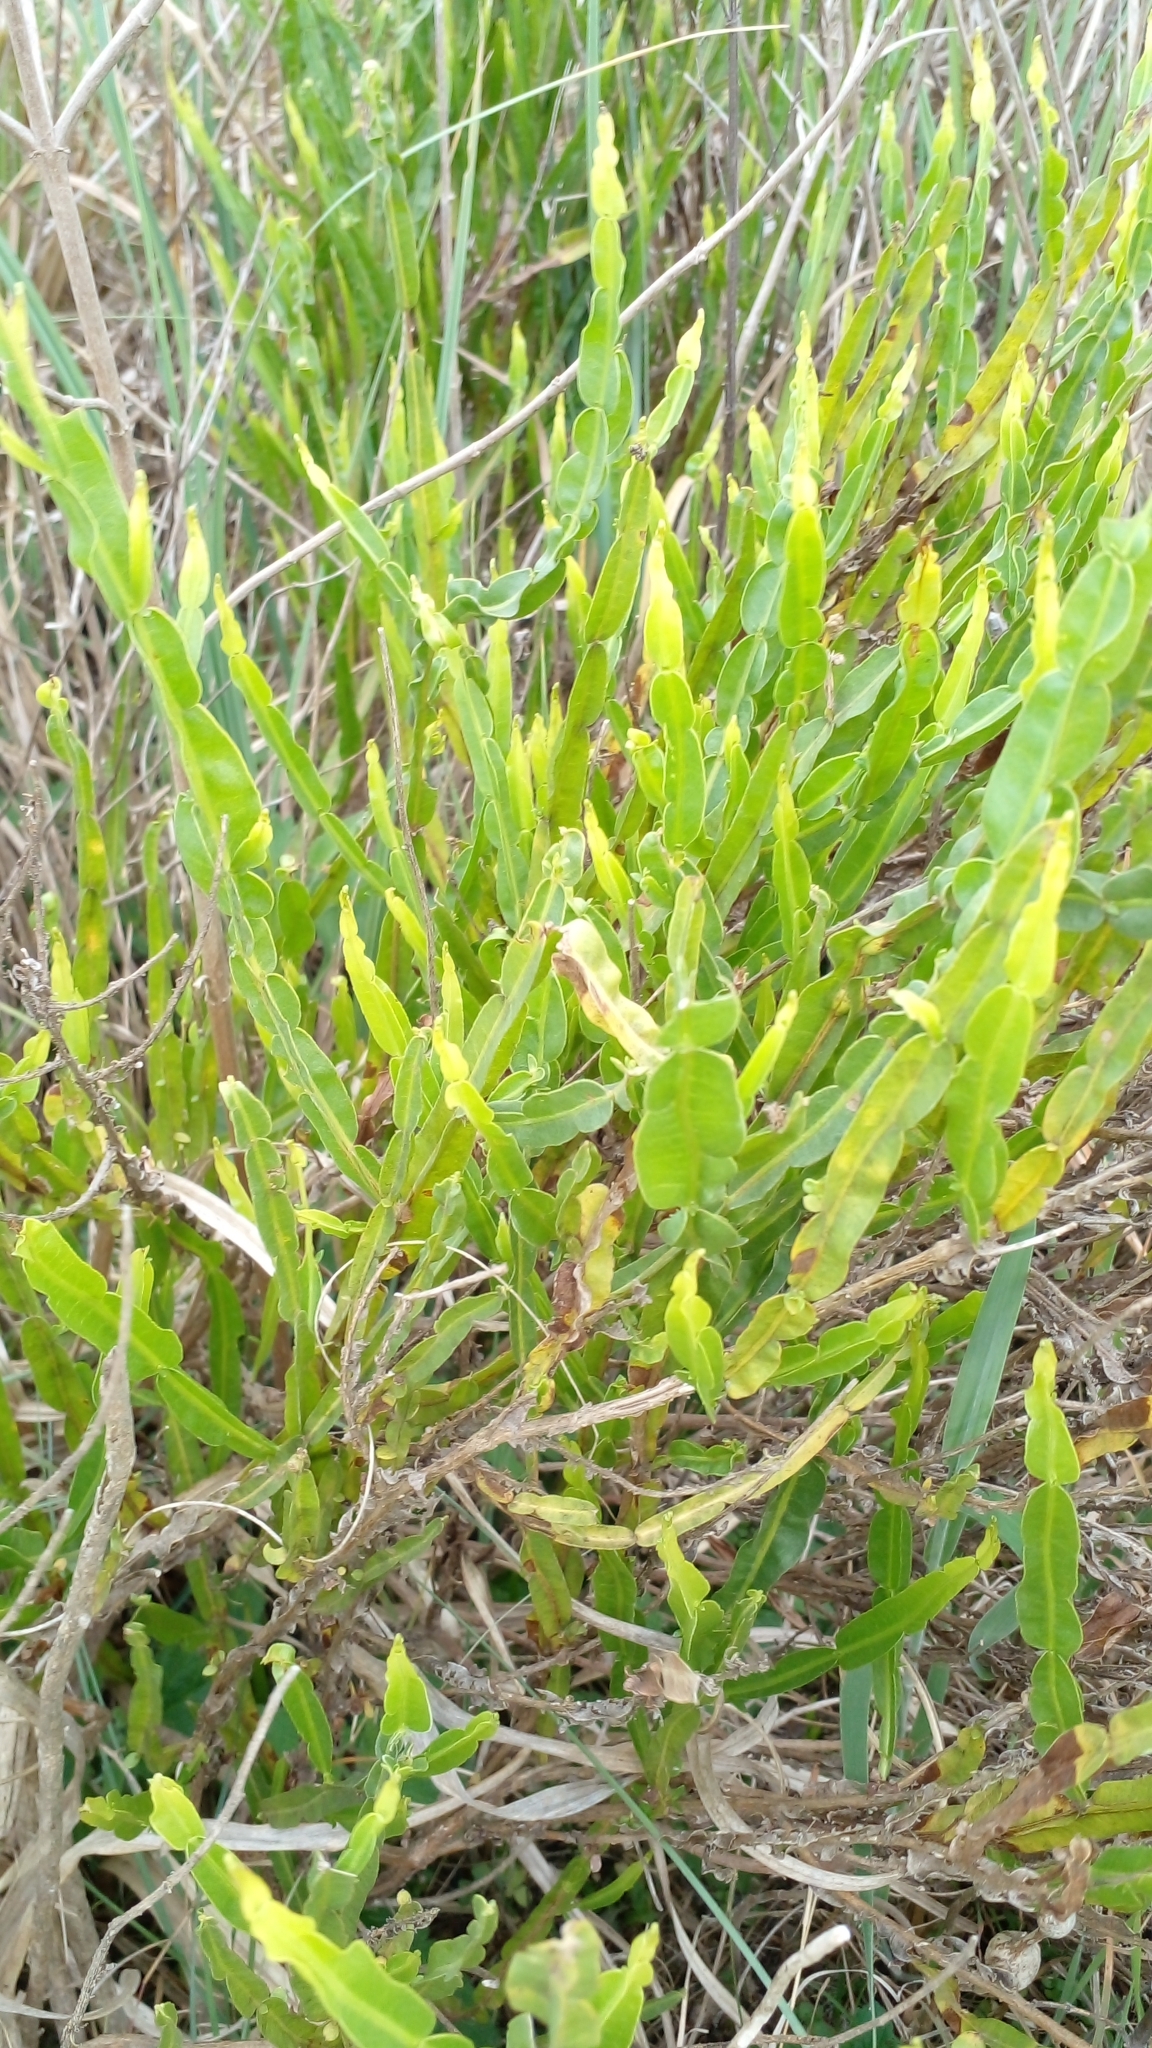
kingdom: Plantae
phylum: Tracheophyta
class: Magnoliopsida
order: Asterales
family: Asteraceae
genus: Baccharis
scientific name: Baccharis trimera
